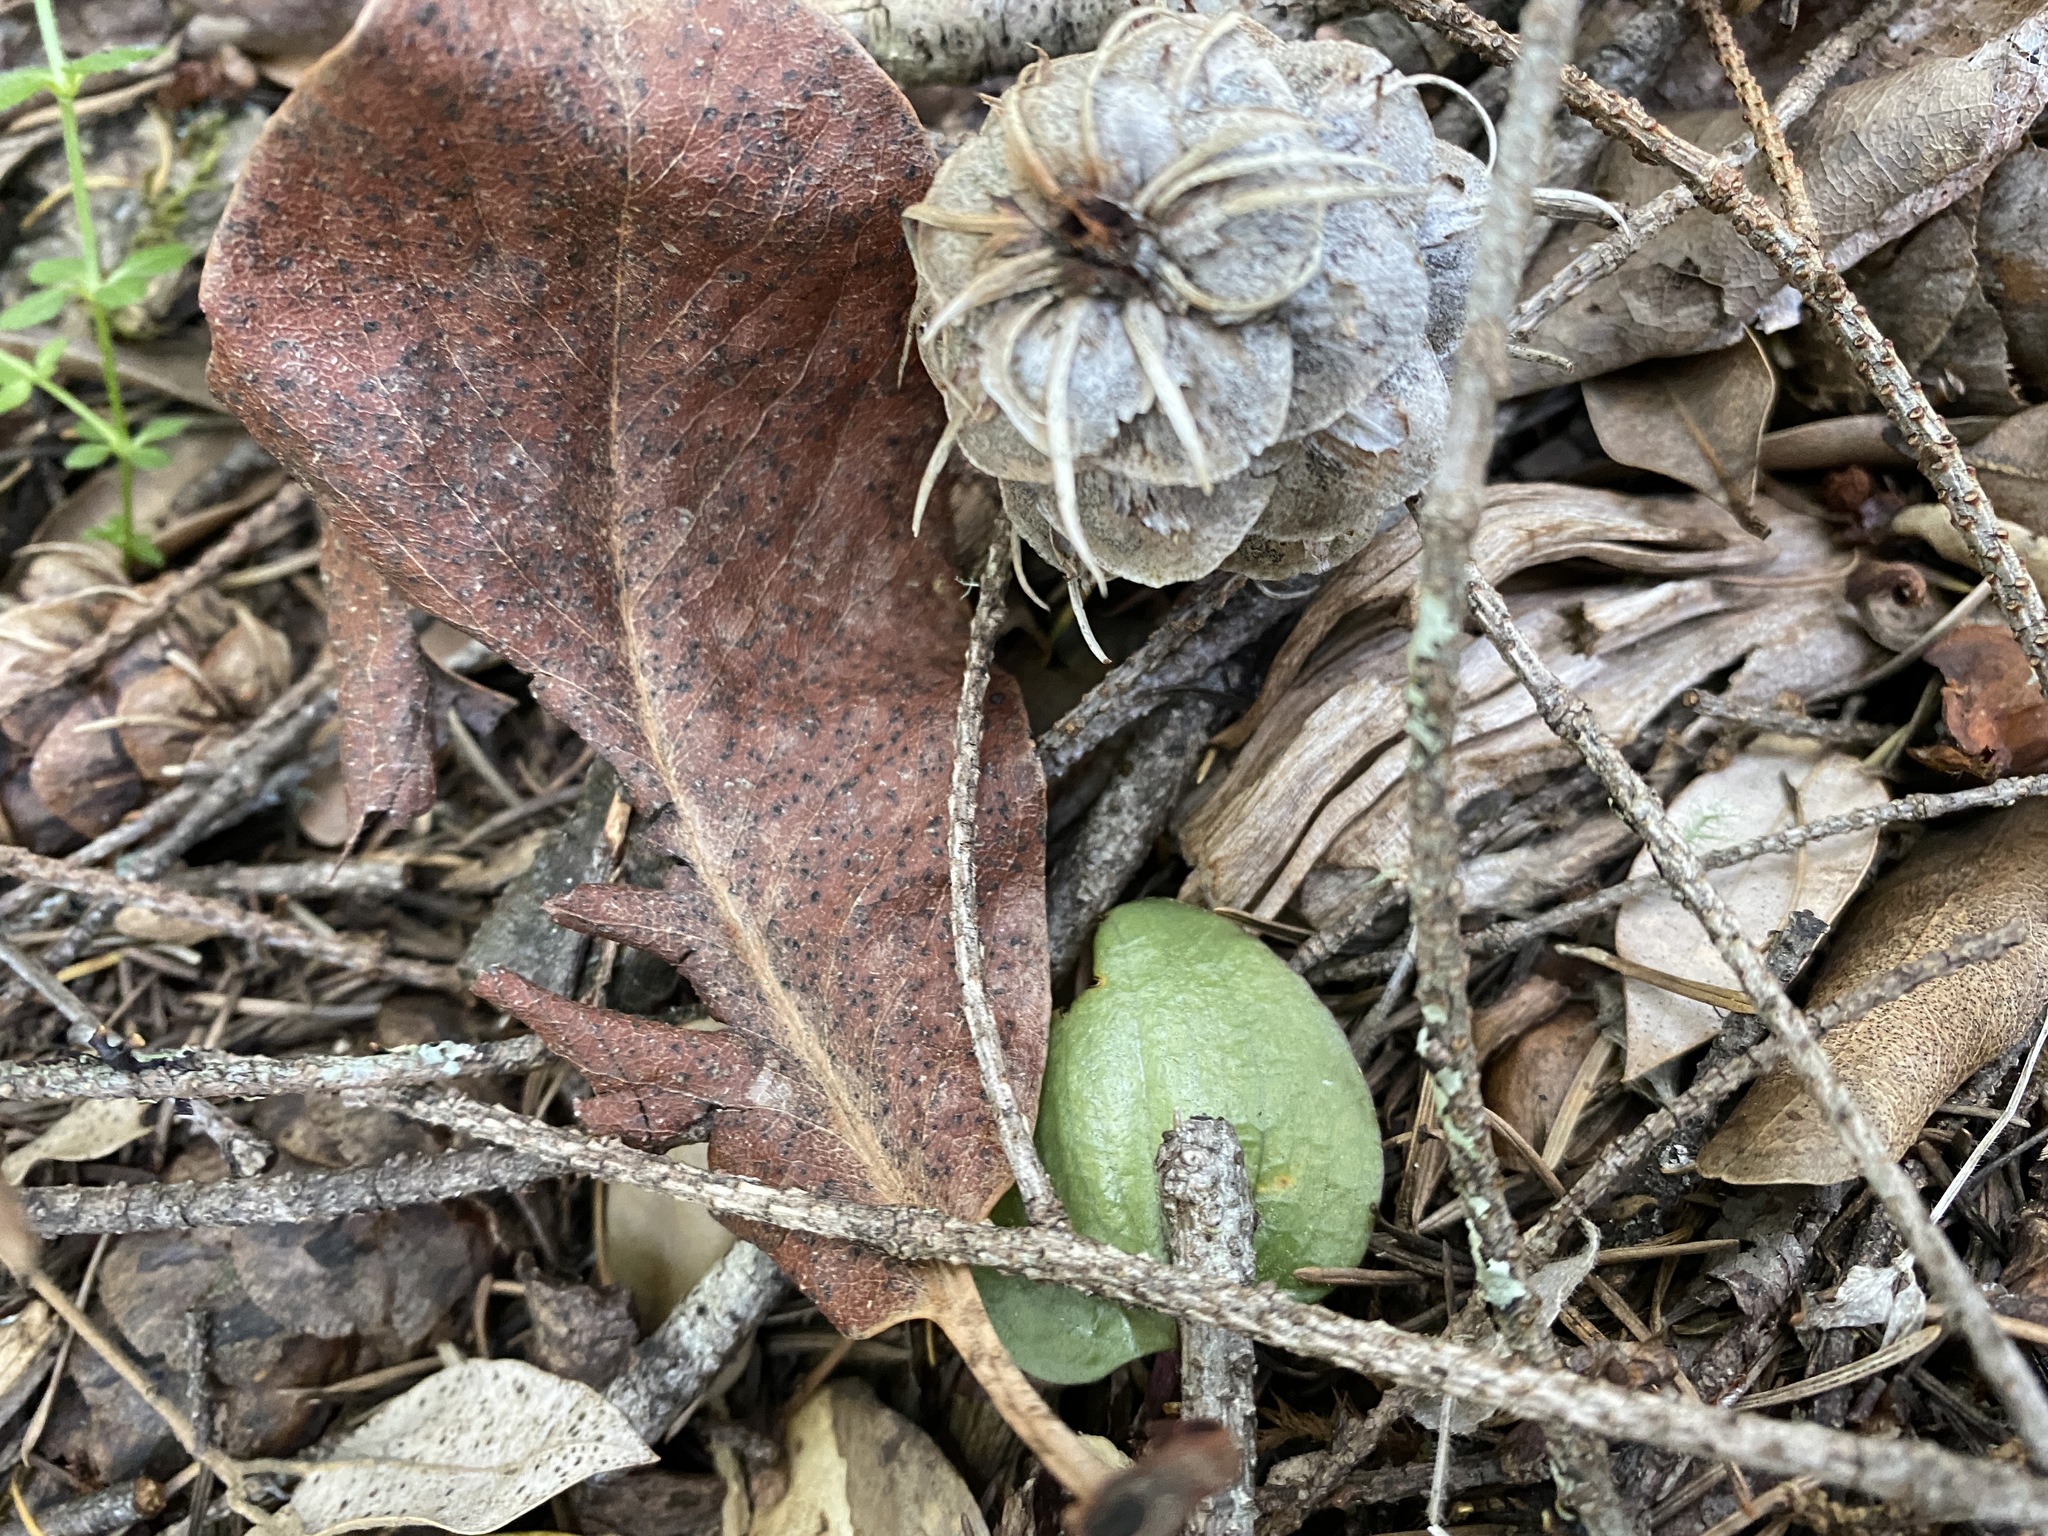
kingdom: Plantae
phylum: Tracheophyta
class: Liliopsida
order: Asparagales
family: Orchidaceae
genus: Calypso
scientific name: Calypso bulbosa
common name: Calypso
